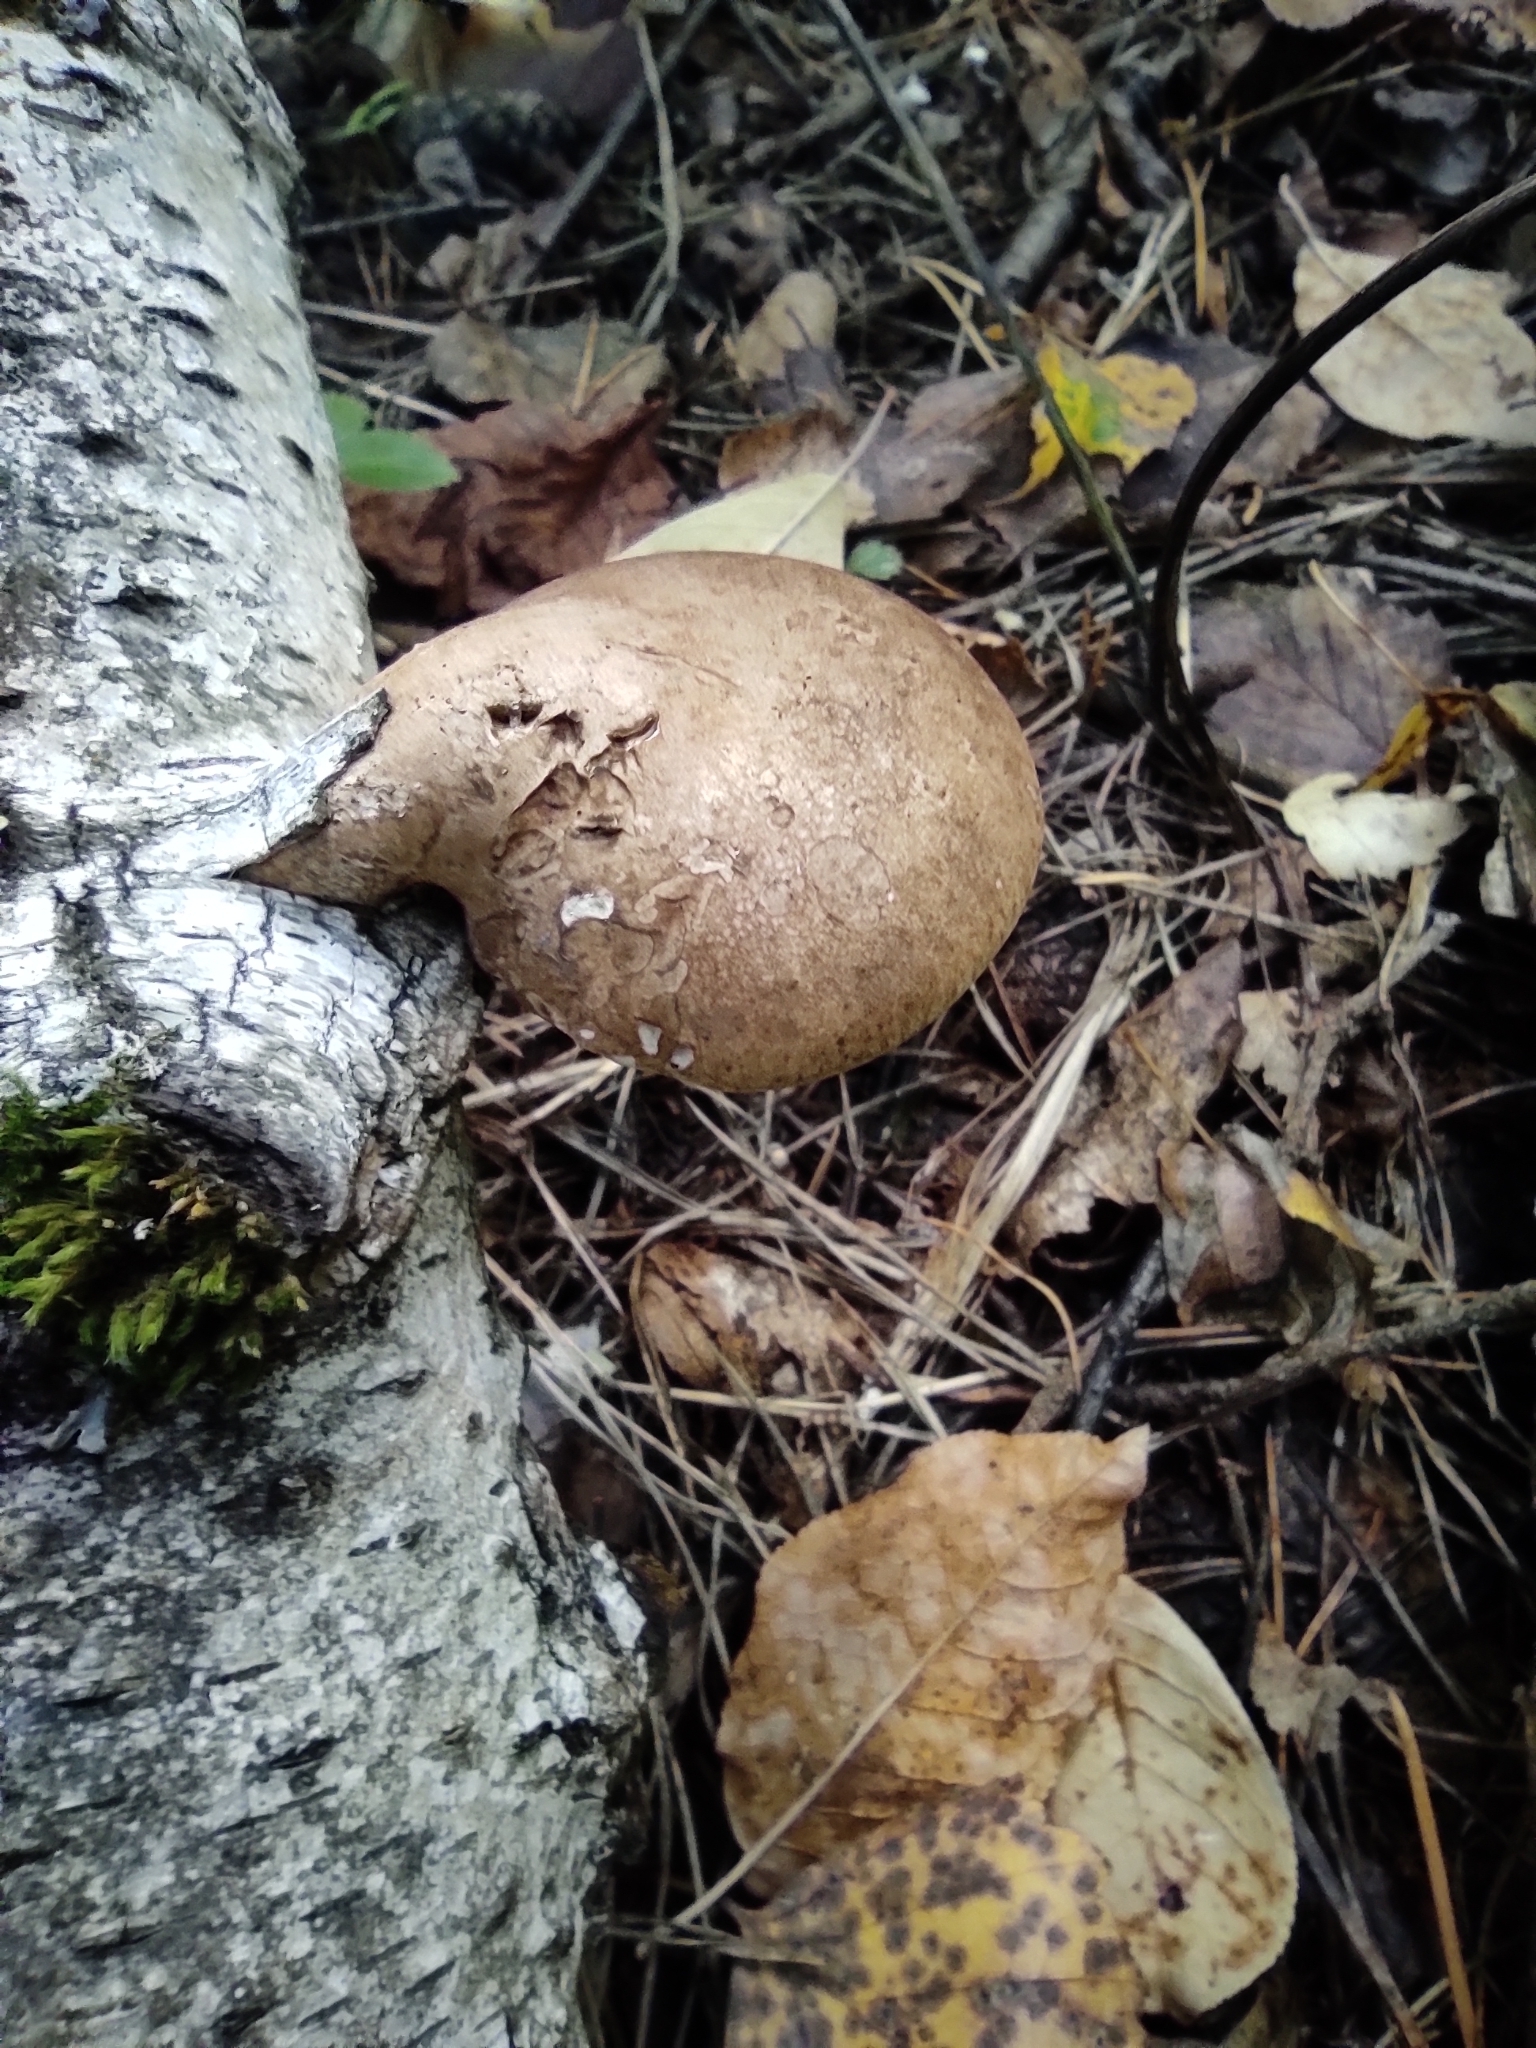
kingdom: Fungi
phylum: Basidiomycota
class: Agaricomycetes
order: Polyporales
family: Fomitopsidaceae
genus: Fomitopsis
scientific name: Fomitopsis betulina
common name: Birch polypore
